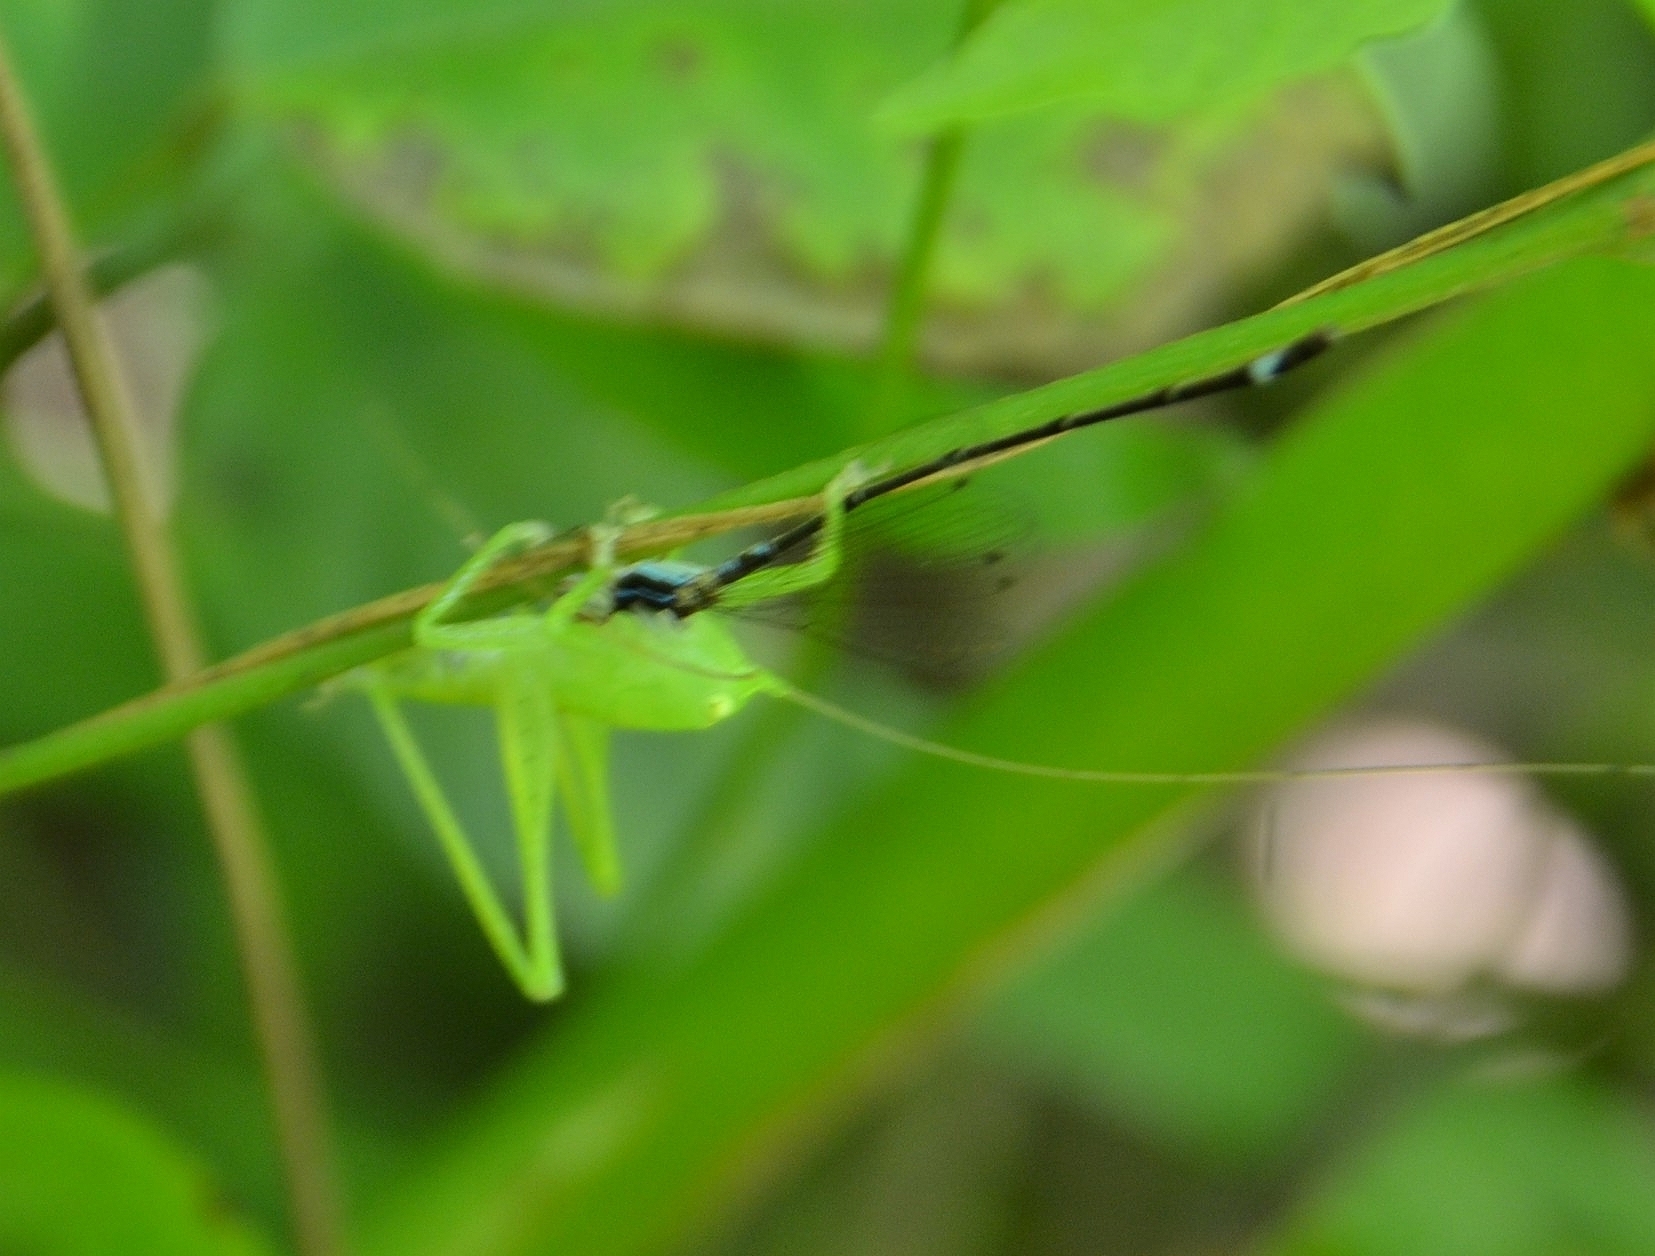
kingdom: Animalia
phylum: Arthropoda
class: Insecta
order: Odonata
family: Coenagrionidae
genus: Mortonagrion
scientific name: Mortonagrion varralli
